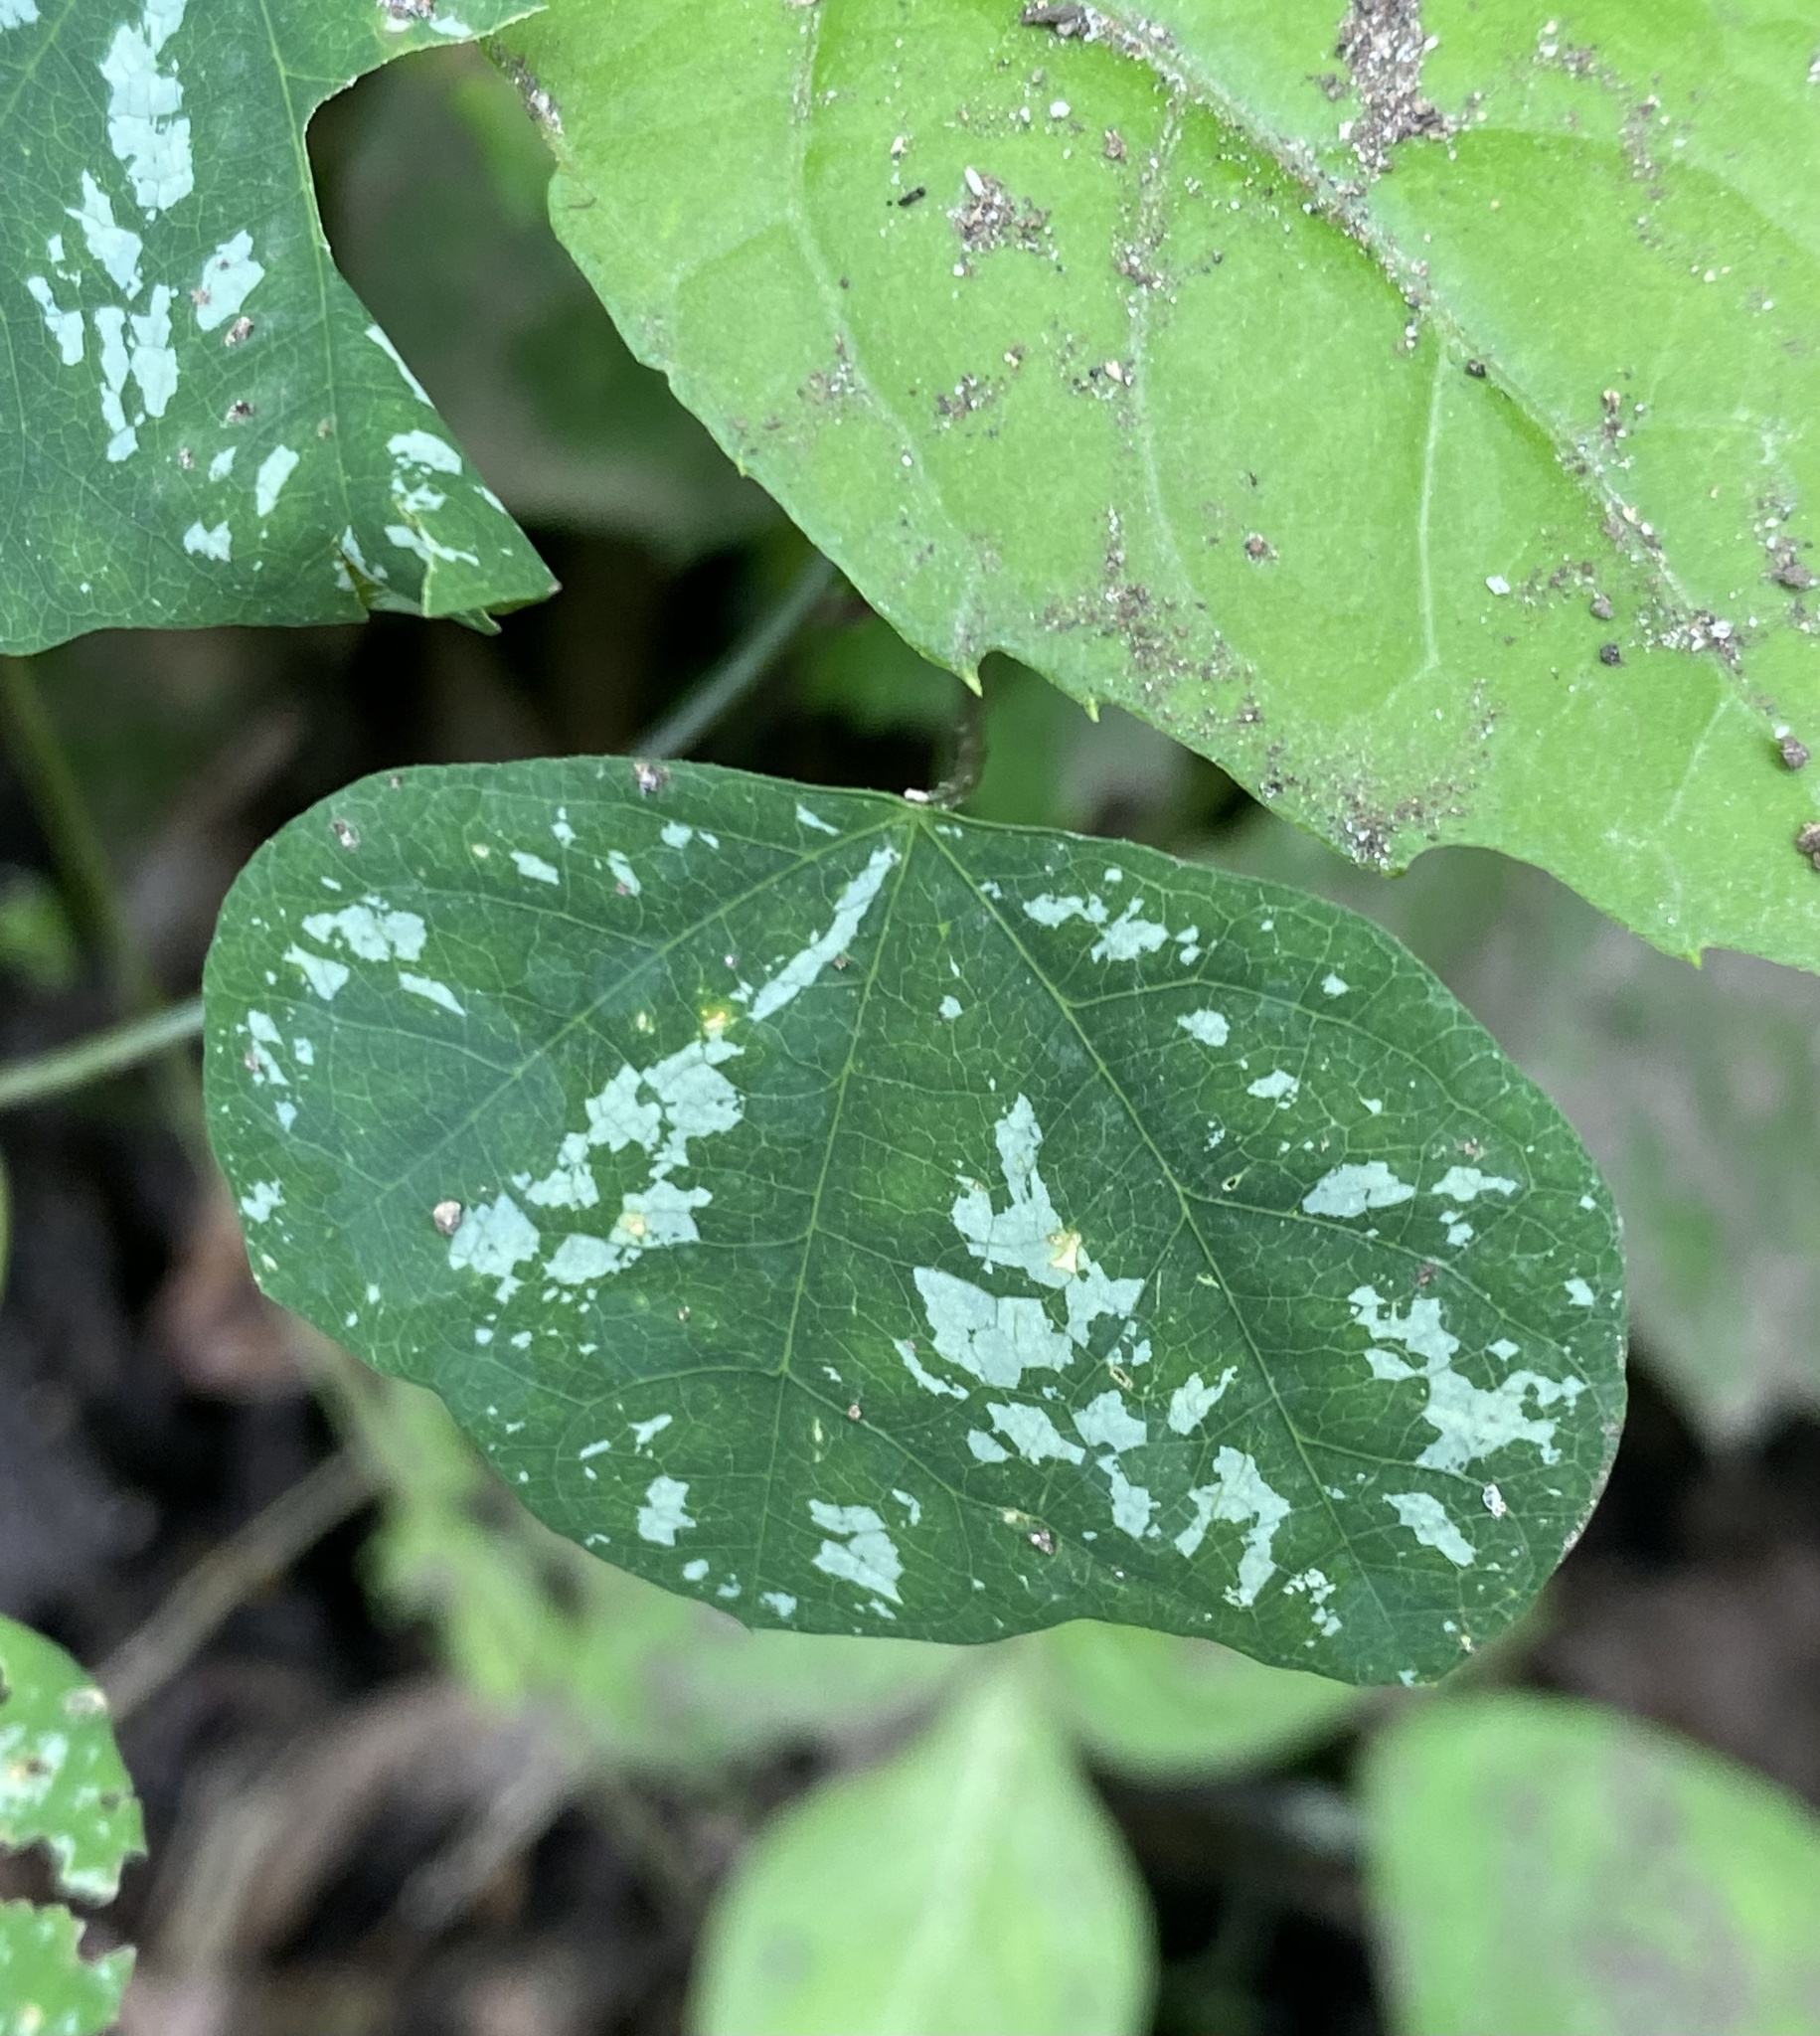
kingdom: Plantae
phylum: Tracheophyta
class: Magnoliopsida
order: Malpighiales
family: Passifloraceae
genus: Passiflora
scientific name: Passiflora biflora
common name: Twoflower passionflower
